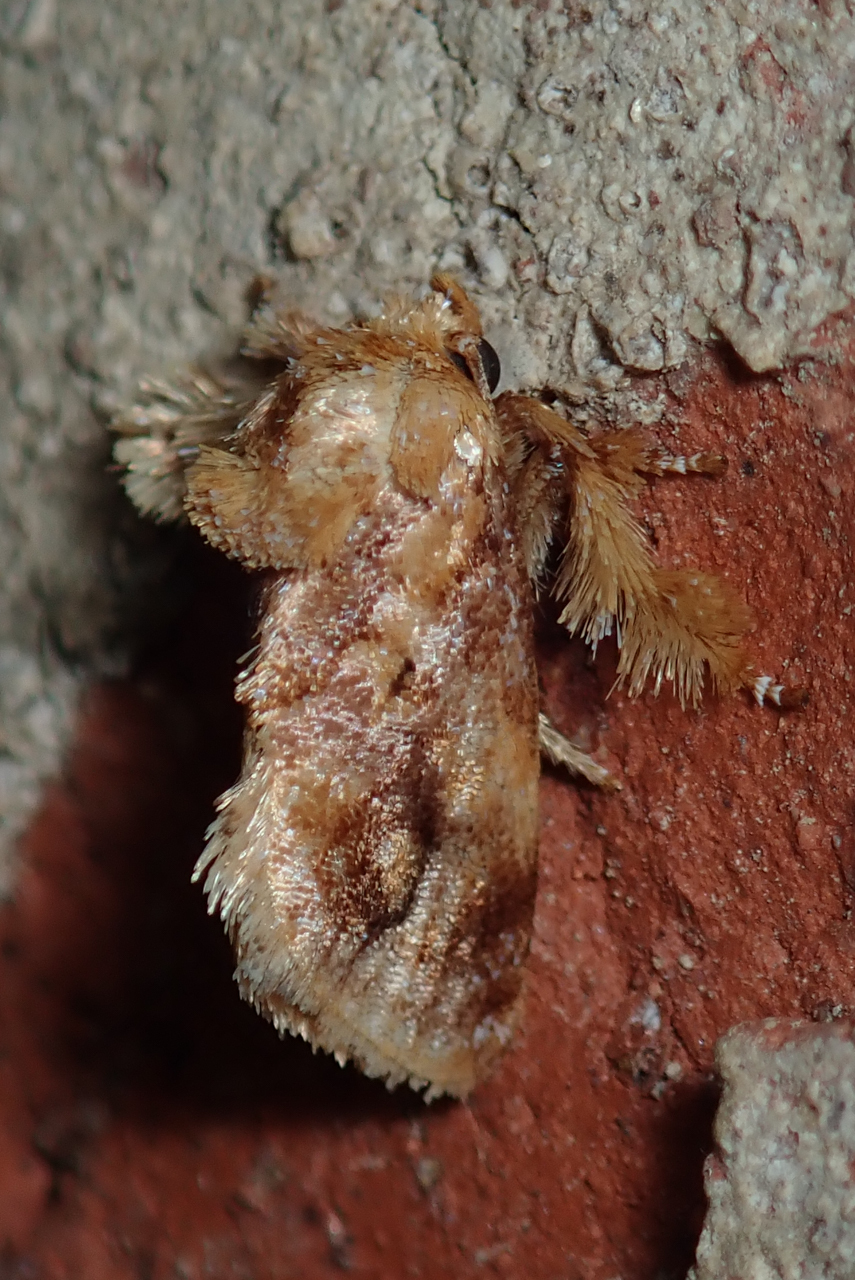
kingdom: Animalia
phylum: Arthropoda
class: Insecta
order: Lepidoptera
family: Limacodidae
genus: Isochaetes
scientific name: Isochaetes beutenmuelleri
